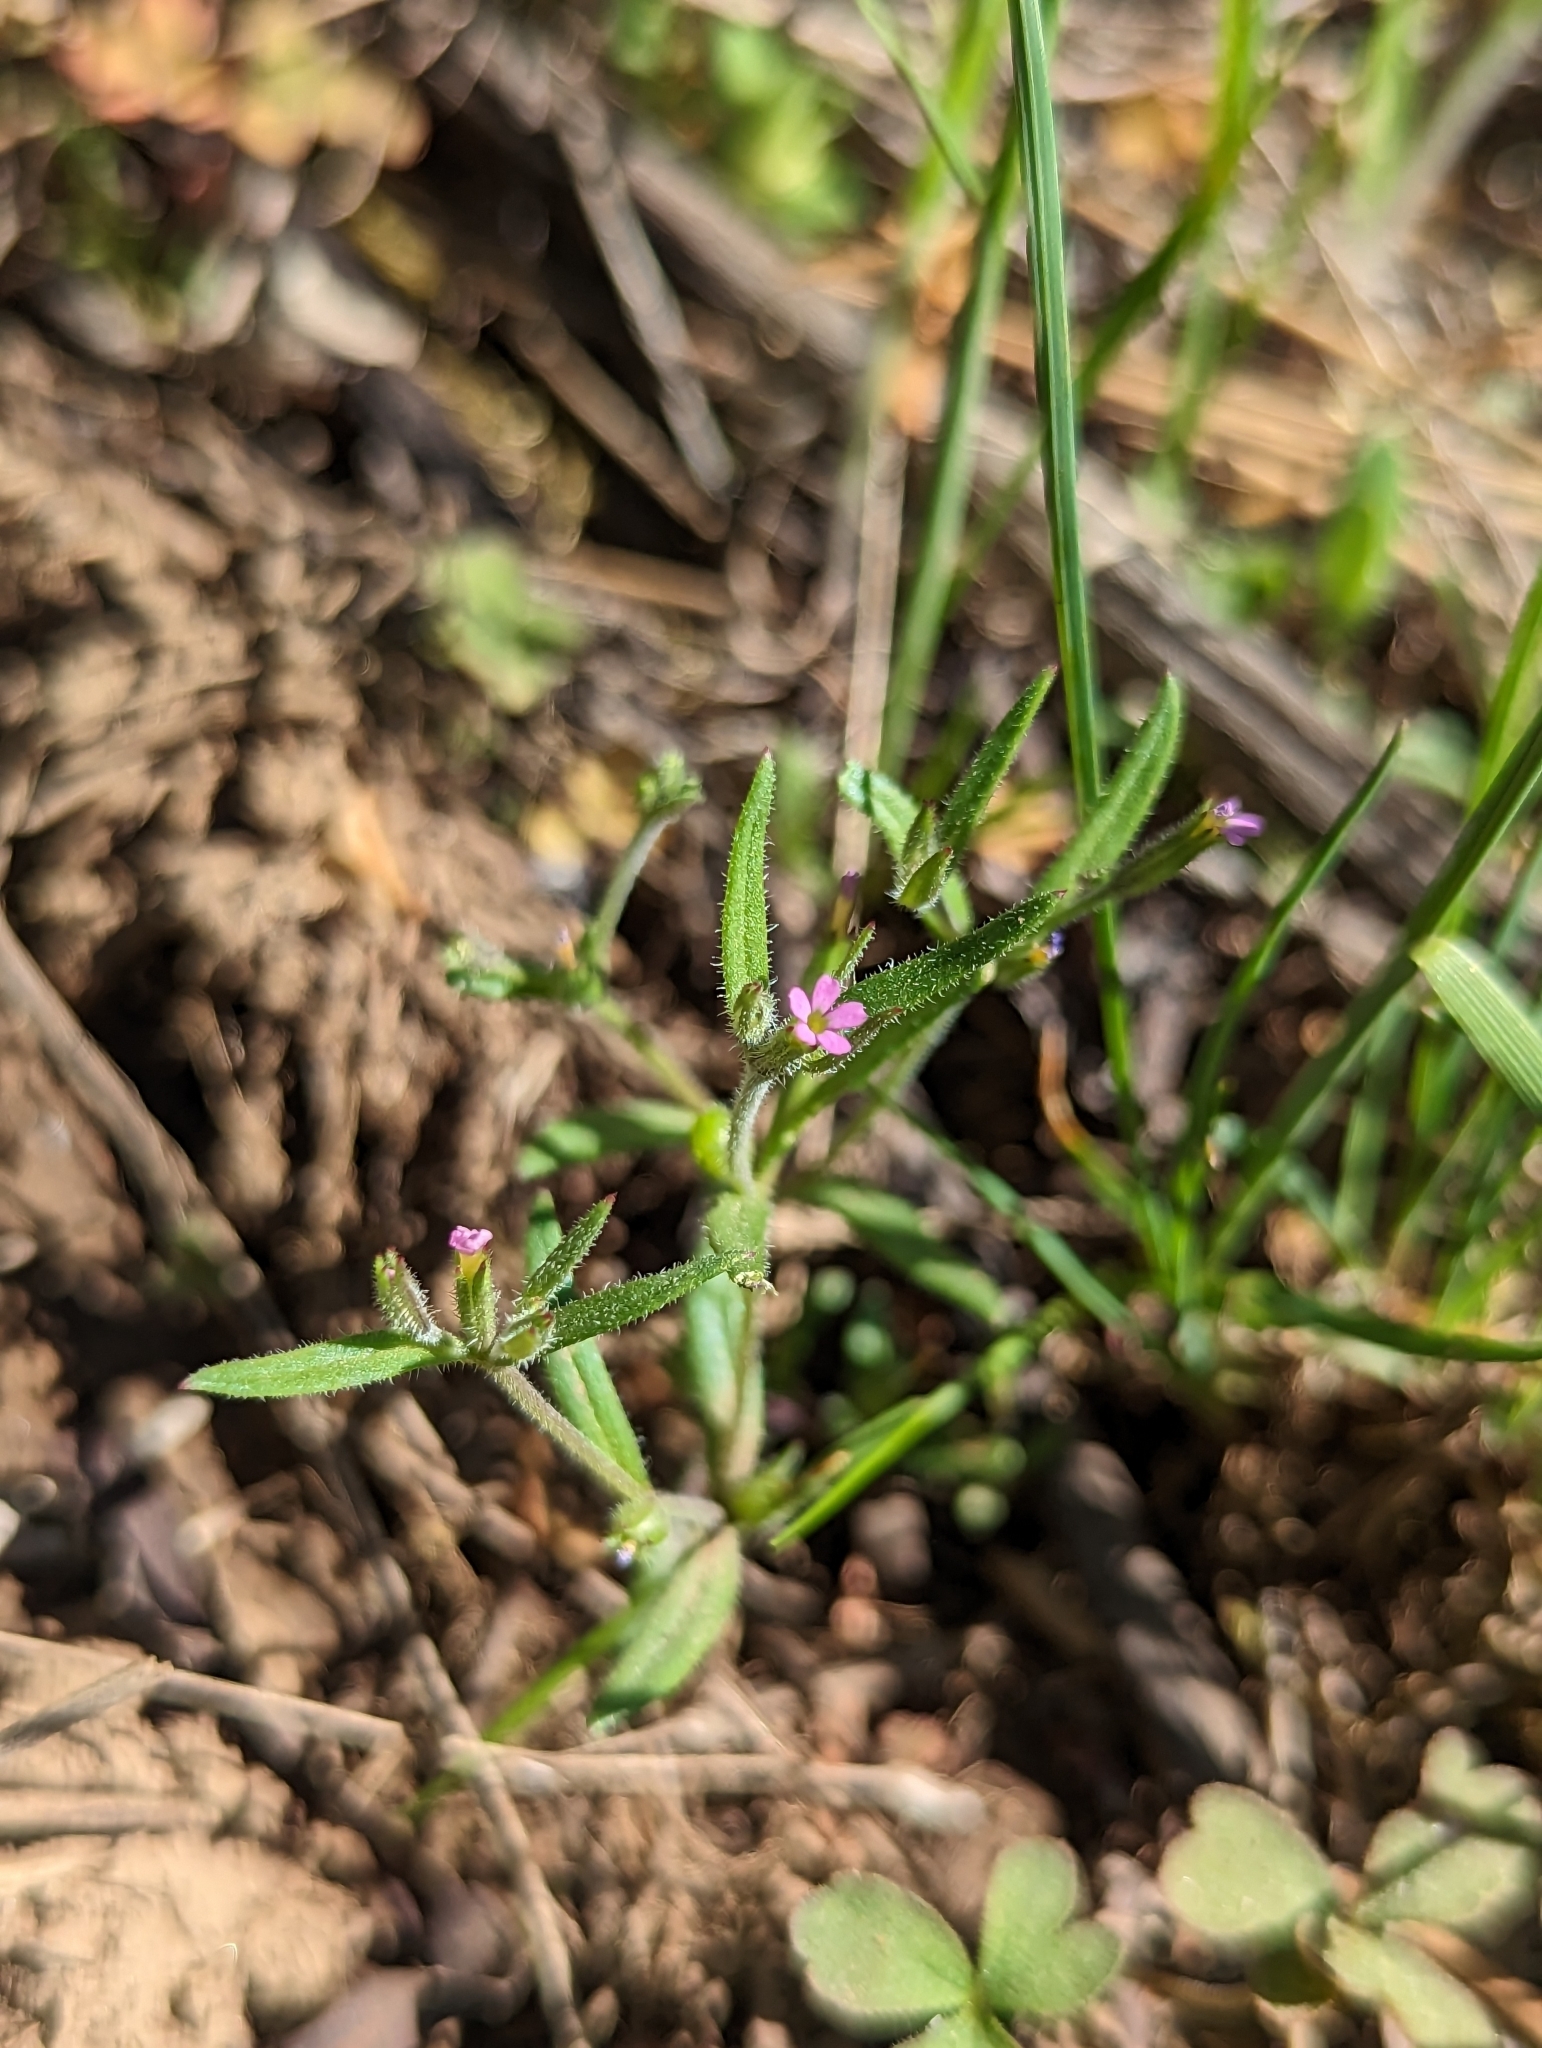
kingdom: Plantae
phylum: Tracheophyta
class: Magnoliopsida
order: Ericales
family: Polemoniaceae
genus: Phlox
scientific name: Phlox gracilis
